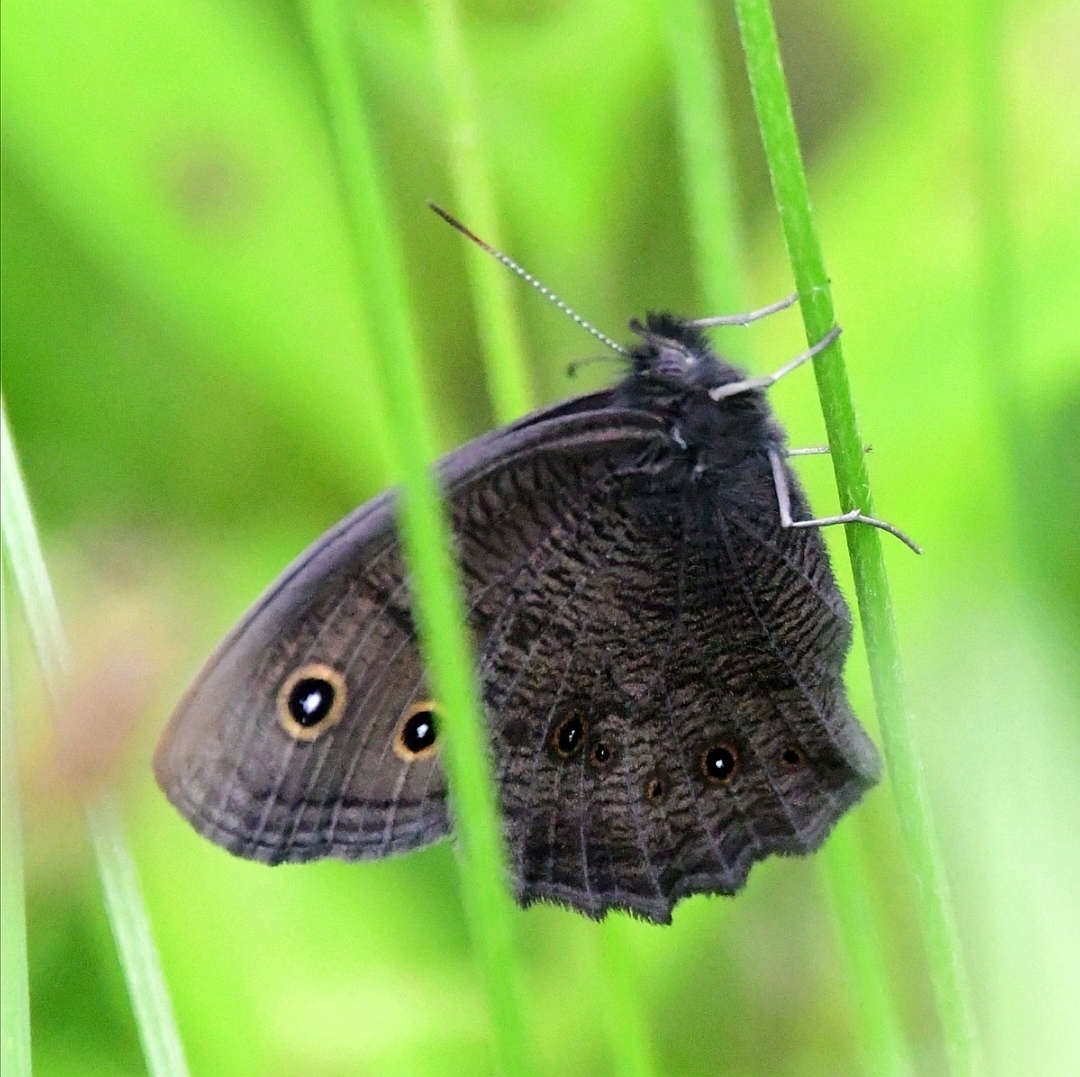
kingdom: Animalia
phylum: Arthropoda
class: Insecta
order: Lepidoptera
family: Nymphalidae
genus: Cercyonis
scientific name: Cercyonis pegala
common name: Common wood-nymph
